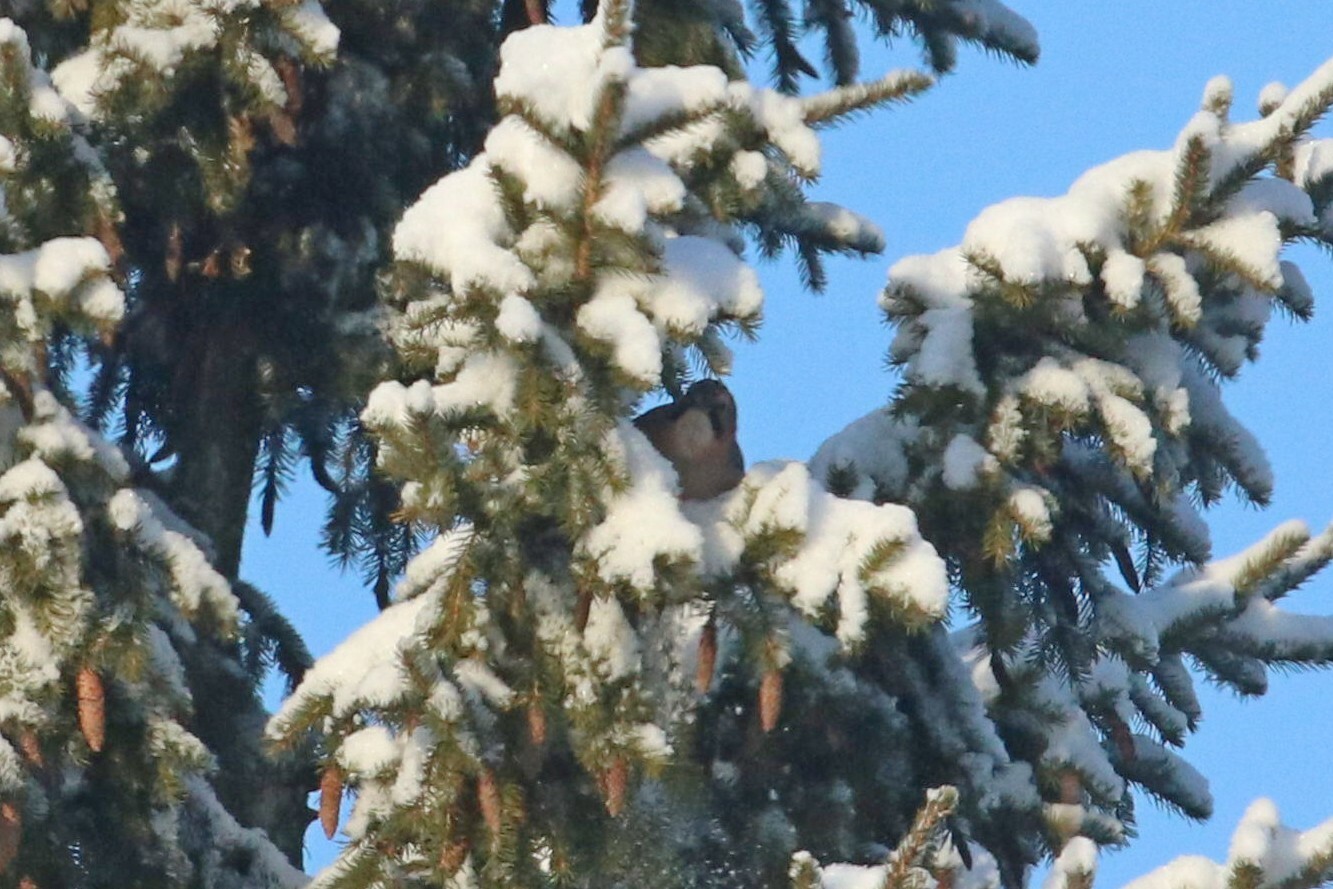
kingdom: Animalia
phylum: Chordata
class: Aves
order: Passeriformes
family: Corvidae
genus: Garrulus
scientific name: Garrulus glandarius
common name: Eurasian jay
